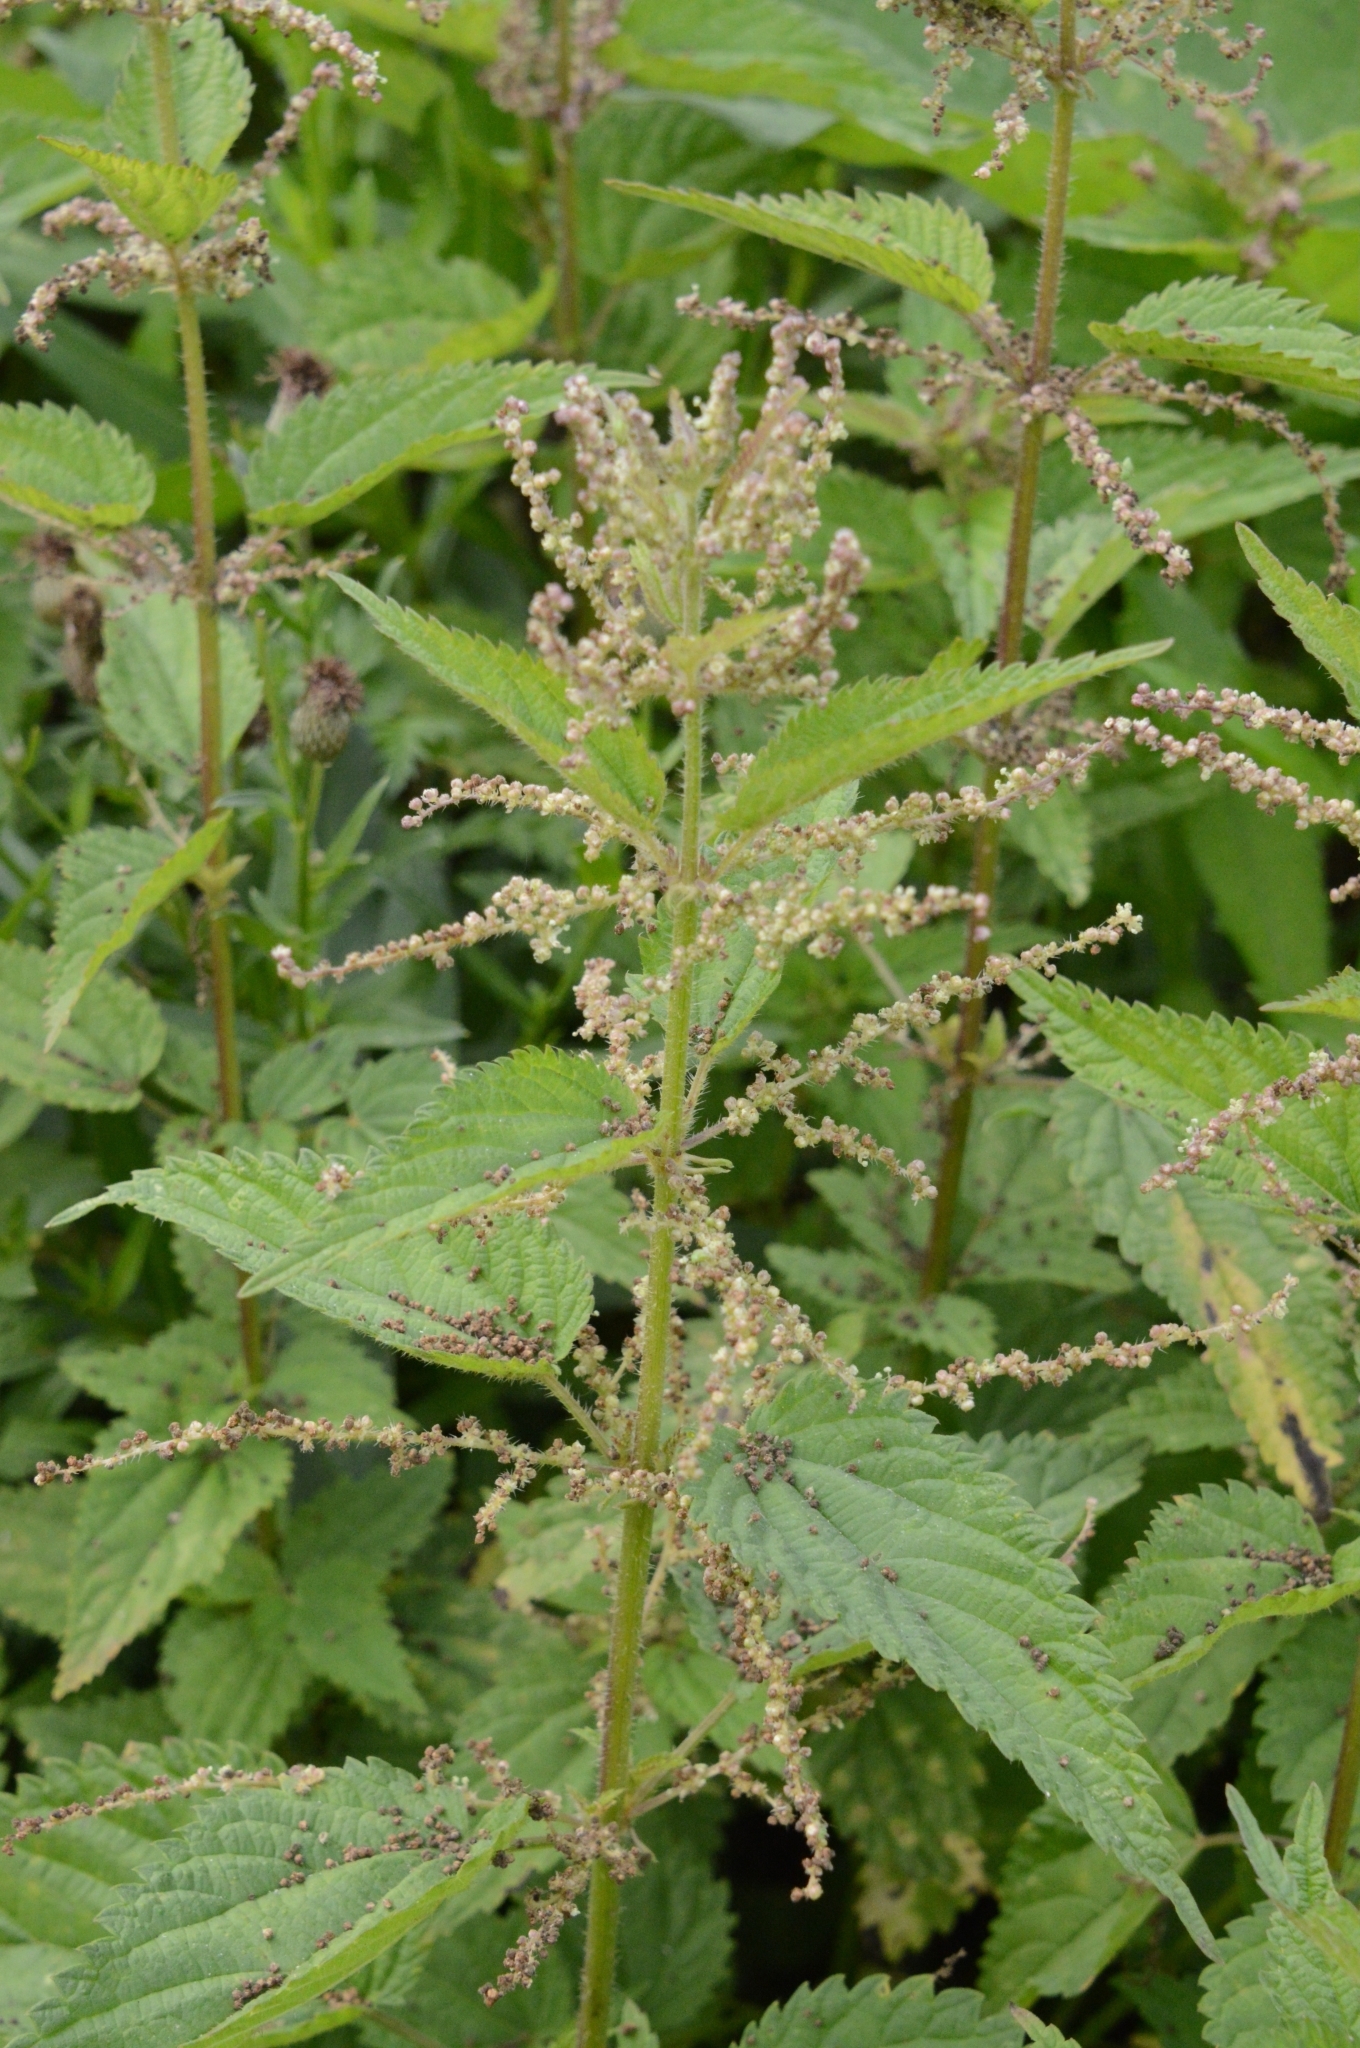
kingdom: Plantae
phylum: Tracheophyta
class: Magnoliopsida
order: Rosales
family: Urticaceae
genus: Urtica
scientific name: Urtica dioica
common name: Common nettle
